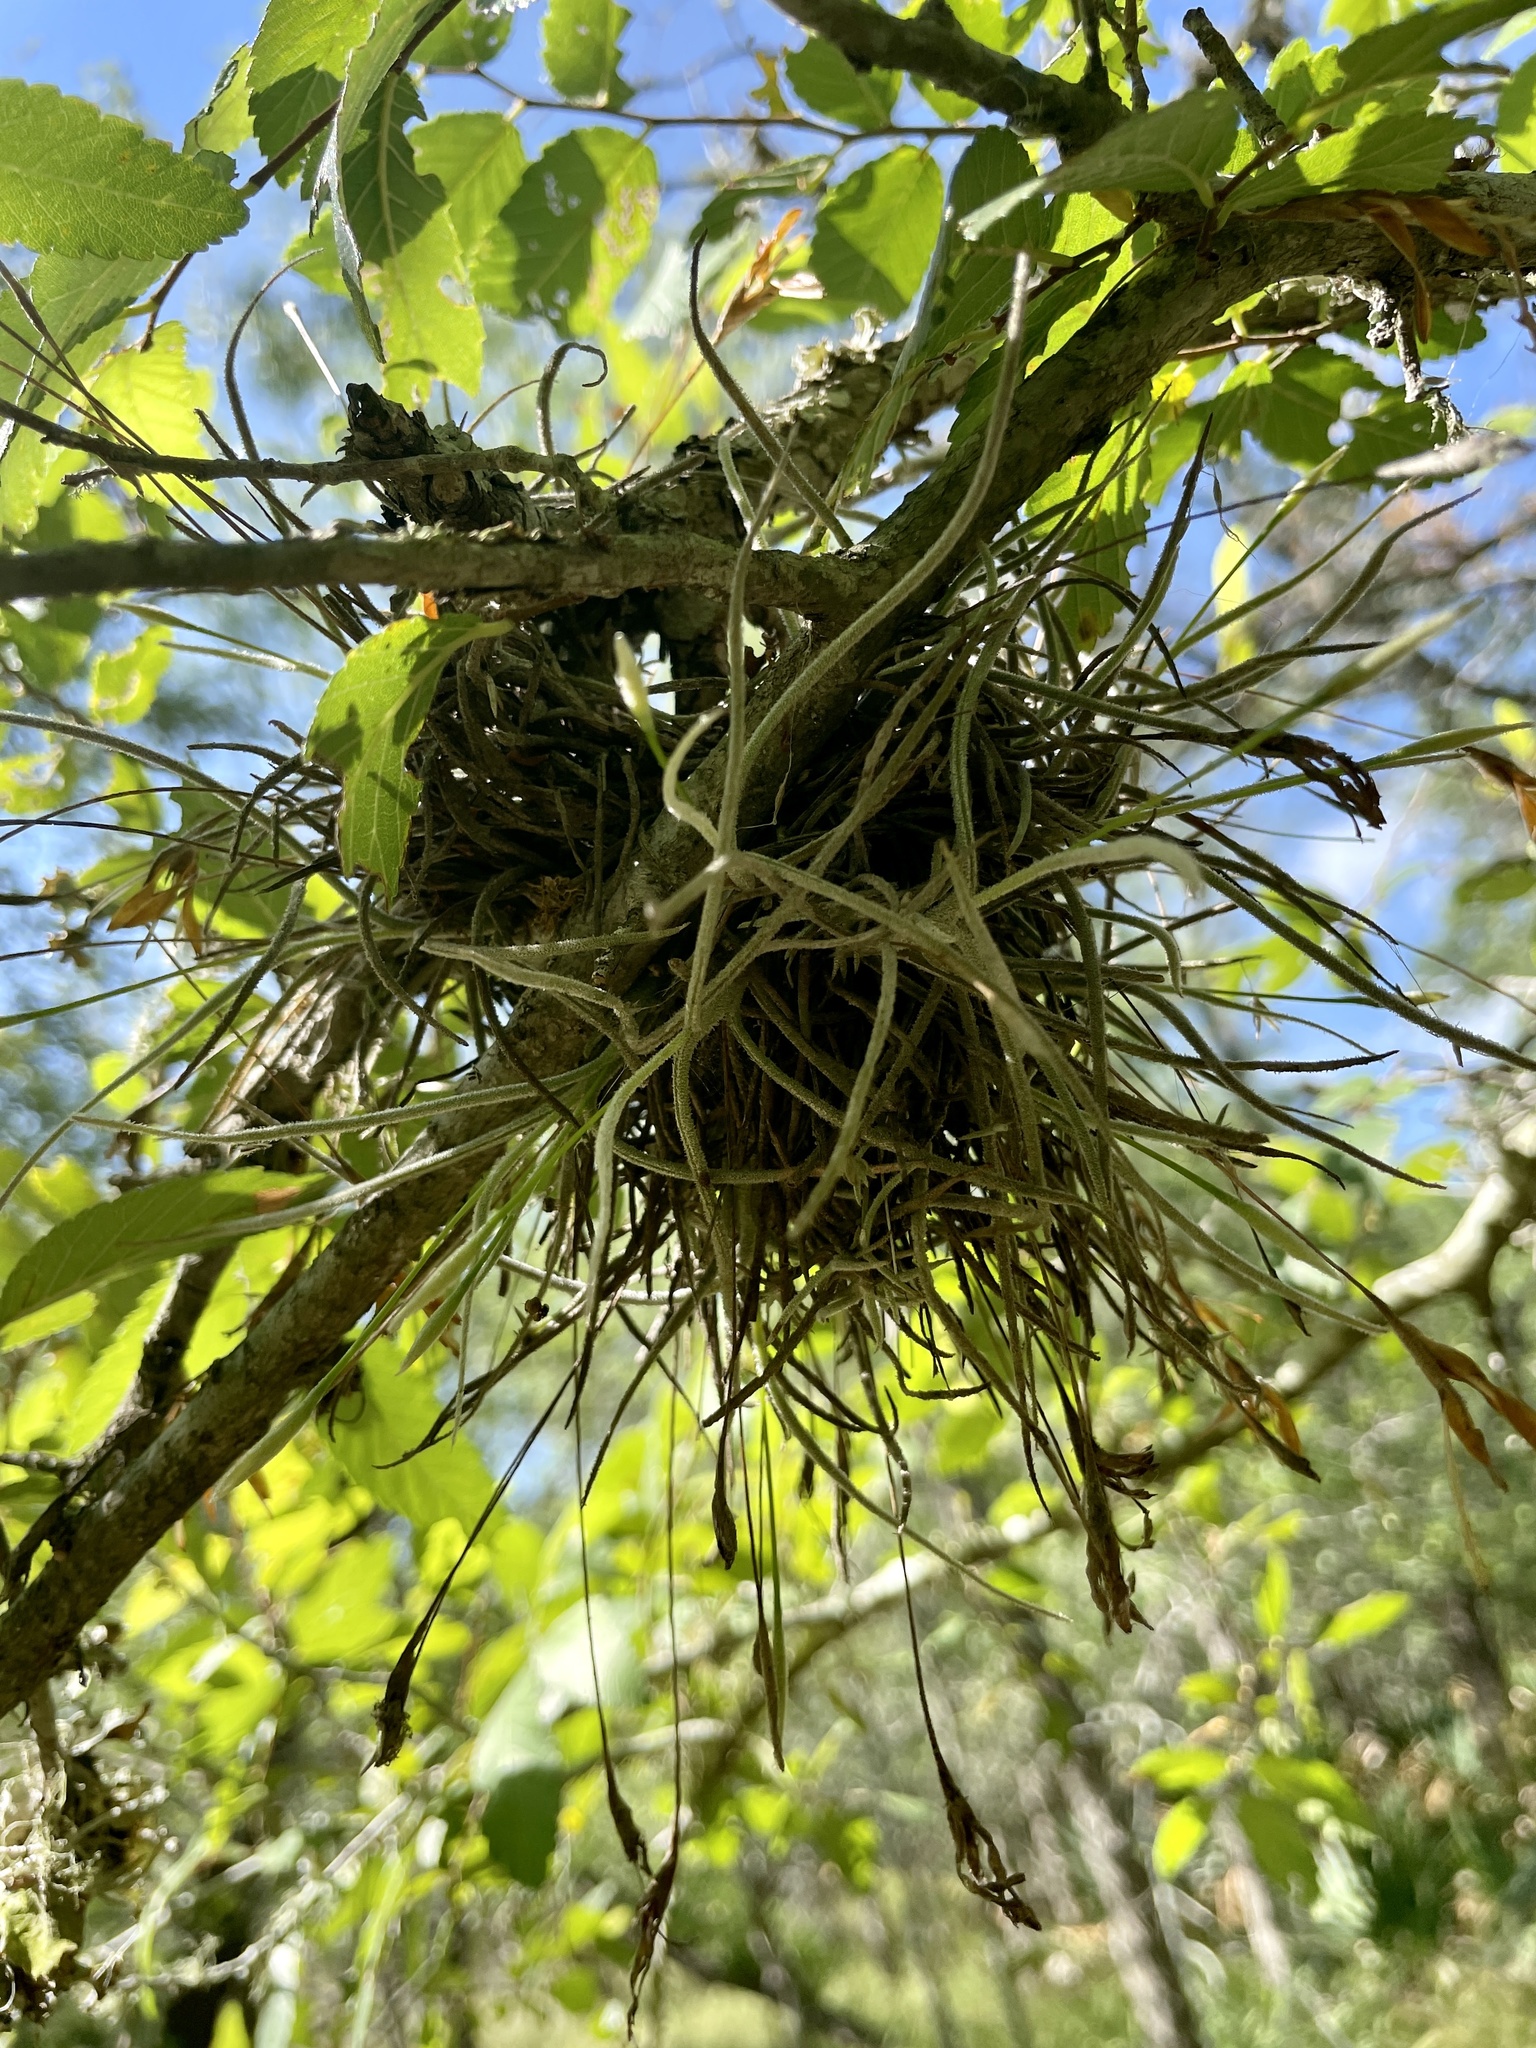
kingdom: Plantae
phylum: Tracheophyta
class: Liliopsida
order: Poales
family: Bromeliaceae
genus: Tillandsia
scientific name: Tillandsia recurvata
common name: Small ballmoss
